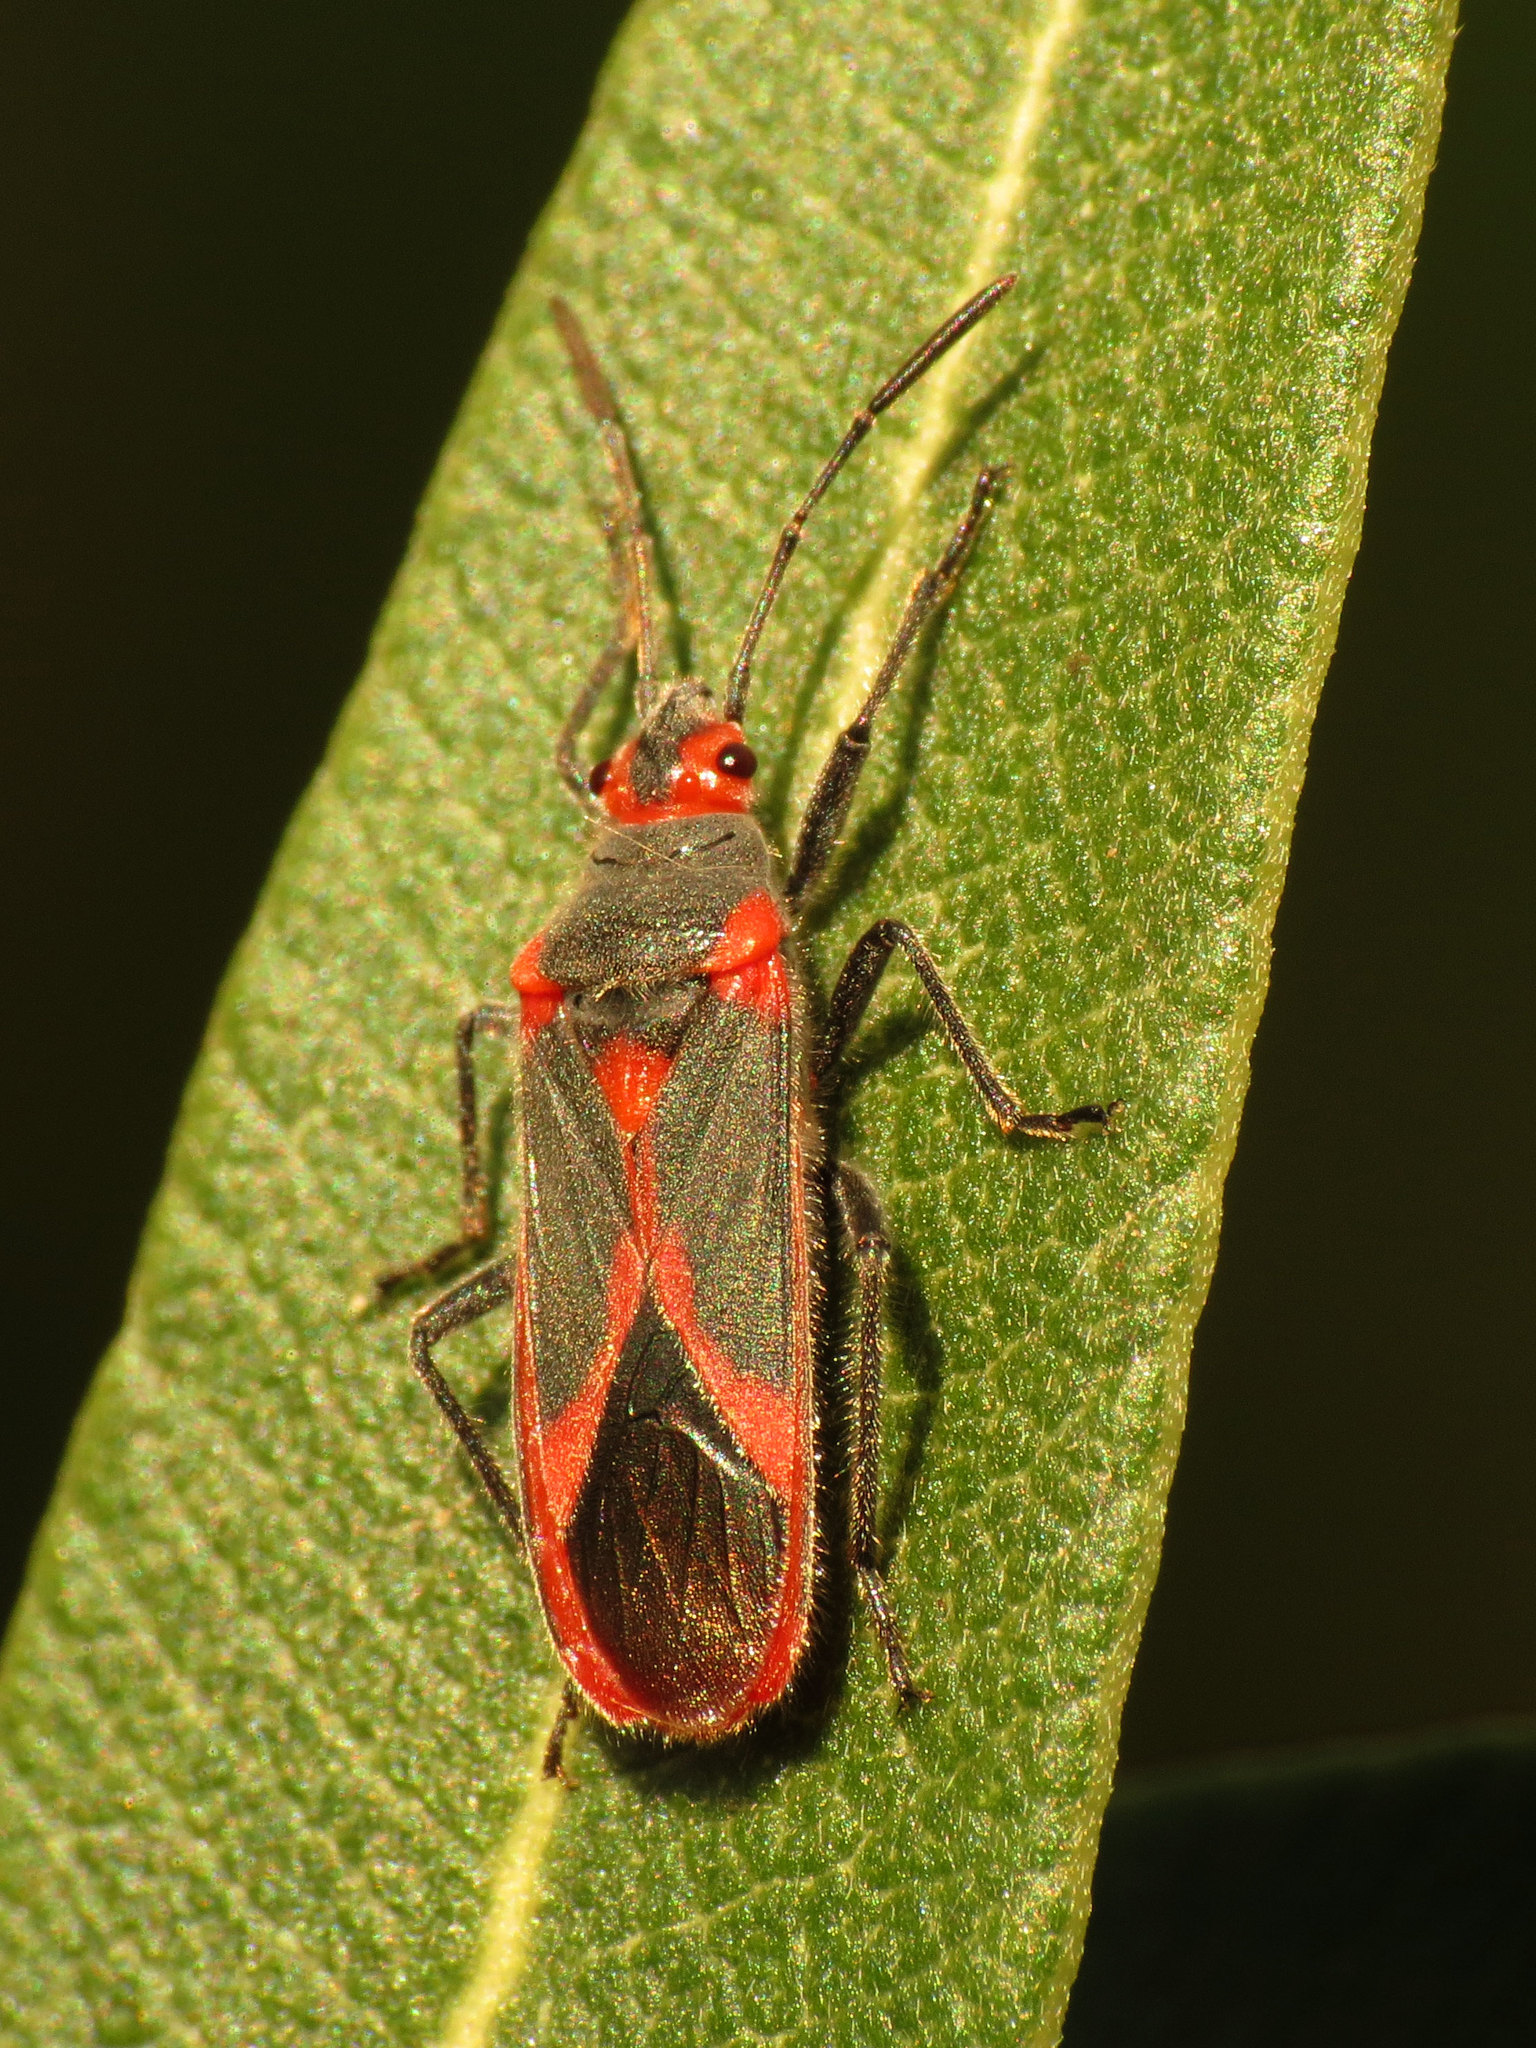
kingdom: Animalia
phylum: Arthropoda
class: Insecta
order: Hemiptera
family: Lygaeidae
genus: Caenocoris
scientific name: Caenocoris nerii
